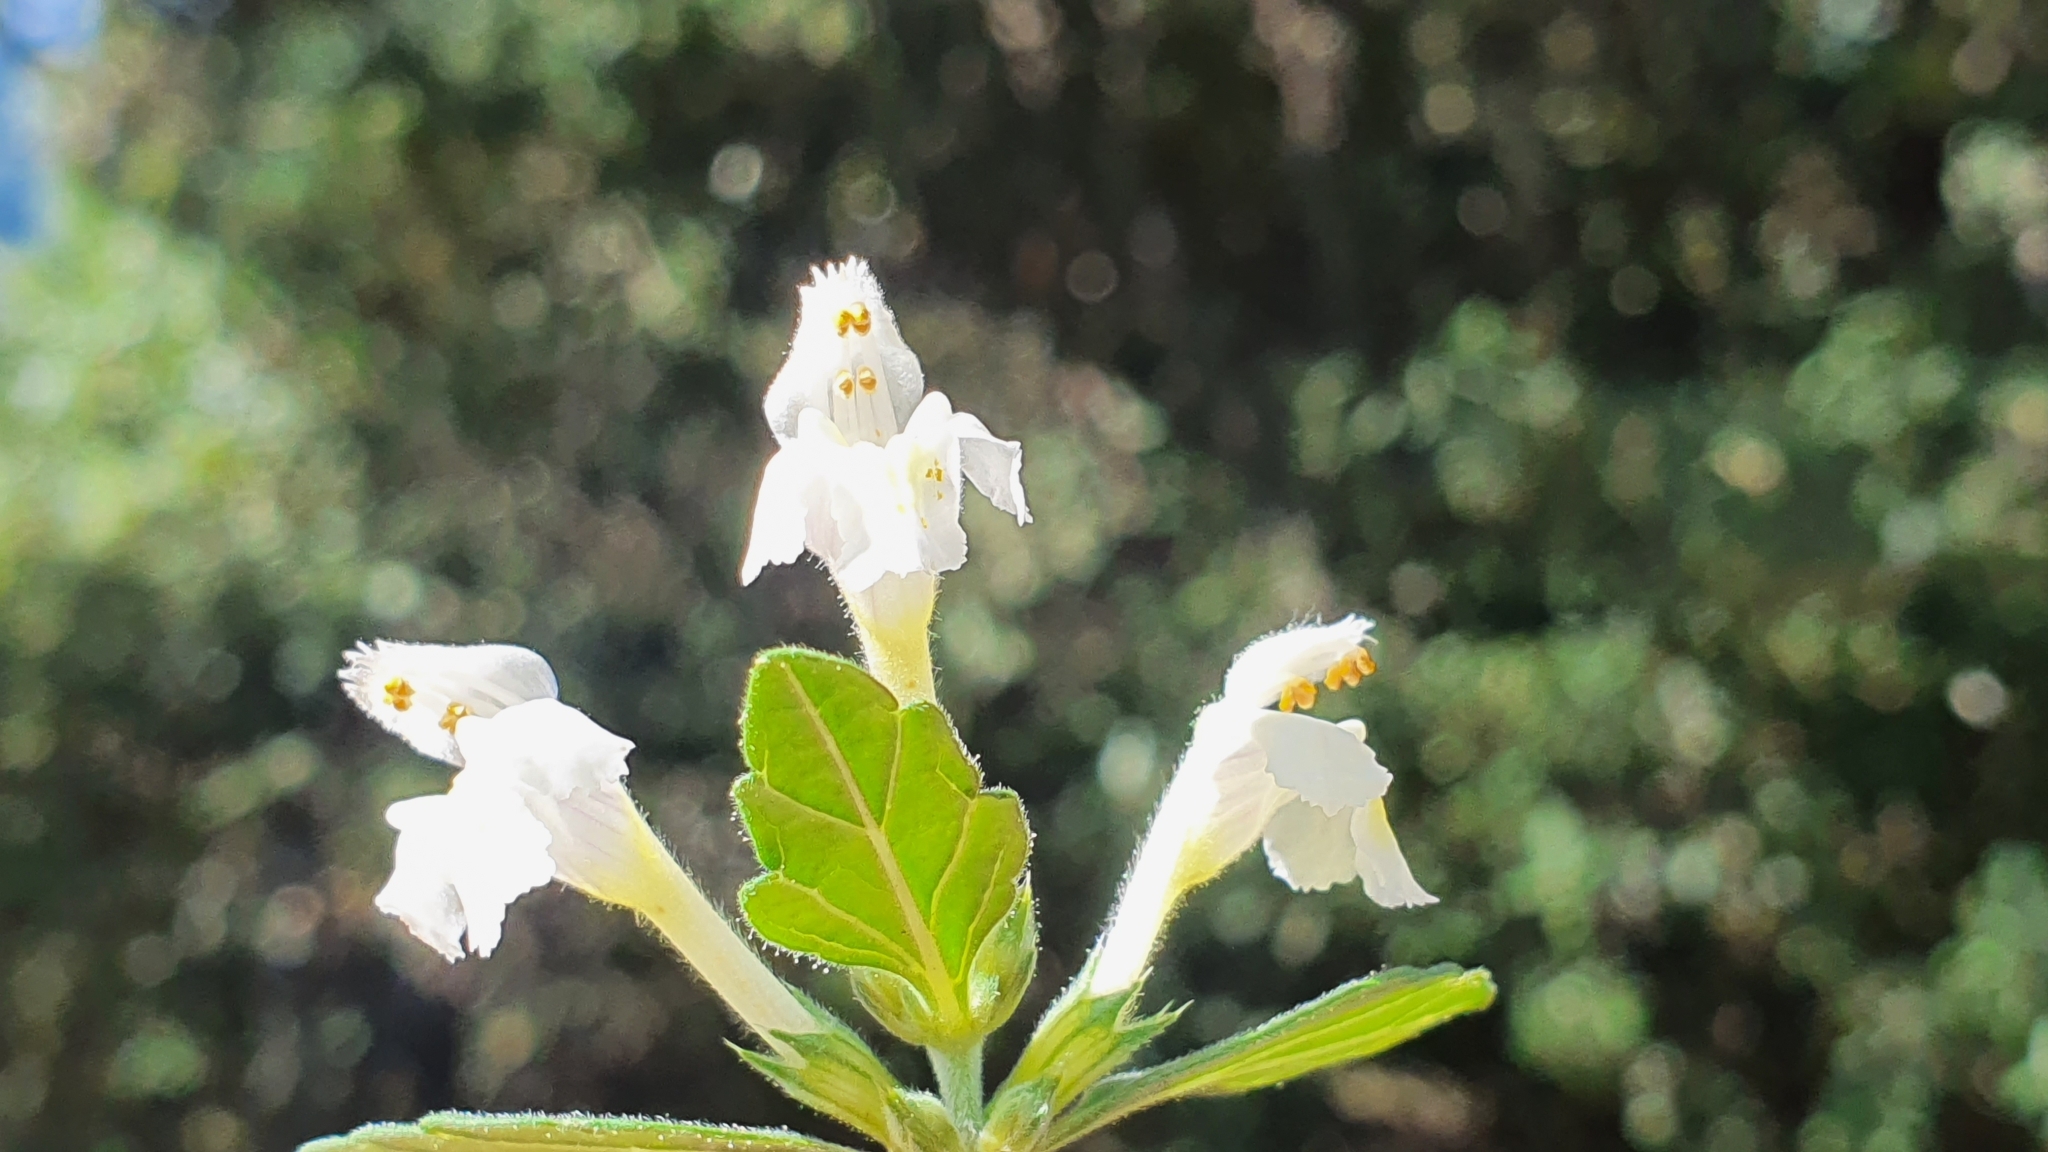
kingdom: Plantae
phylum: Tracheophyta
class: Magnoliopsida
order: Lamiales
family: Lamiaceae
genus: Galeopsis
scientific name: Galeopsis segetum
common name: Downy hemp-nettle
